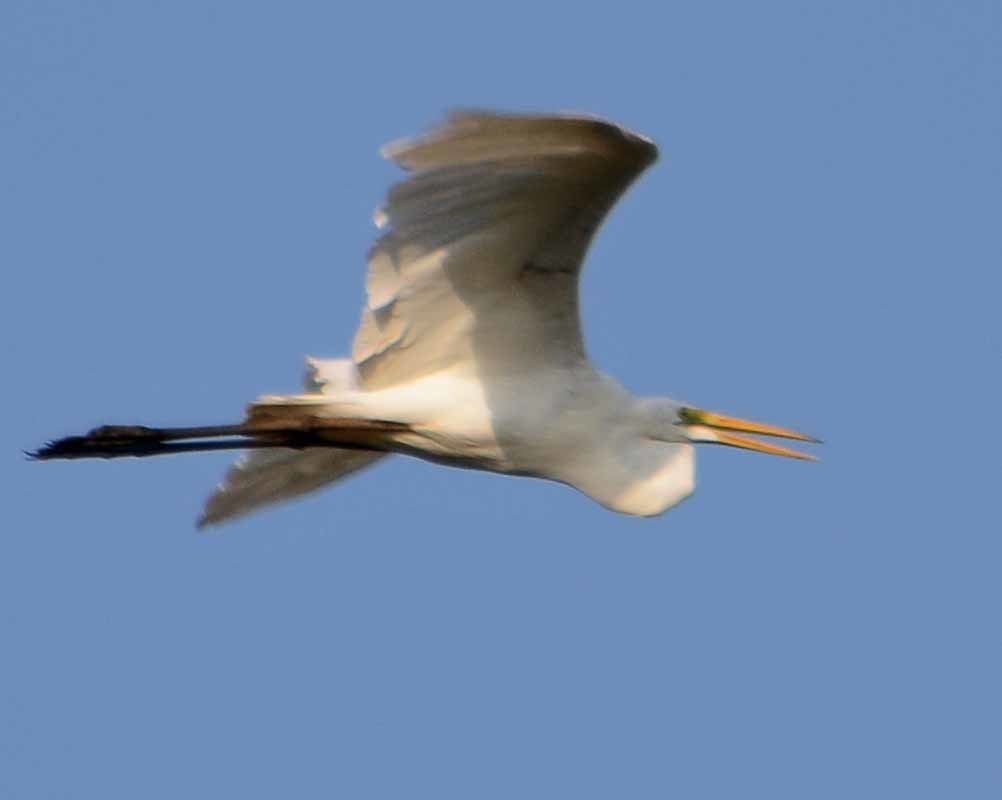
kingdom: Animalia
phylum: Chordata
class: Aves
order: Pelecaniformes
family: Ardeidae
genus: Ardea
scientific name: Ardea alba
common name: Great egret
